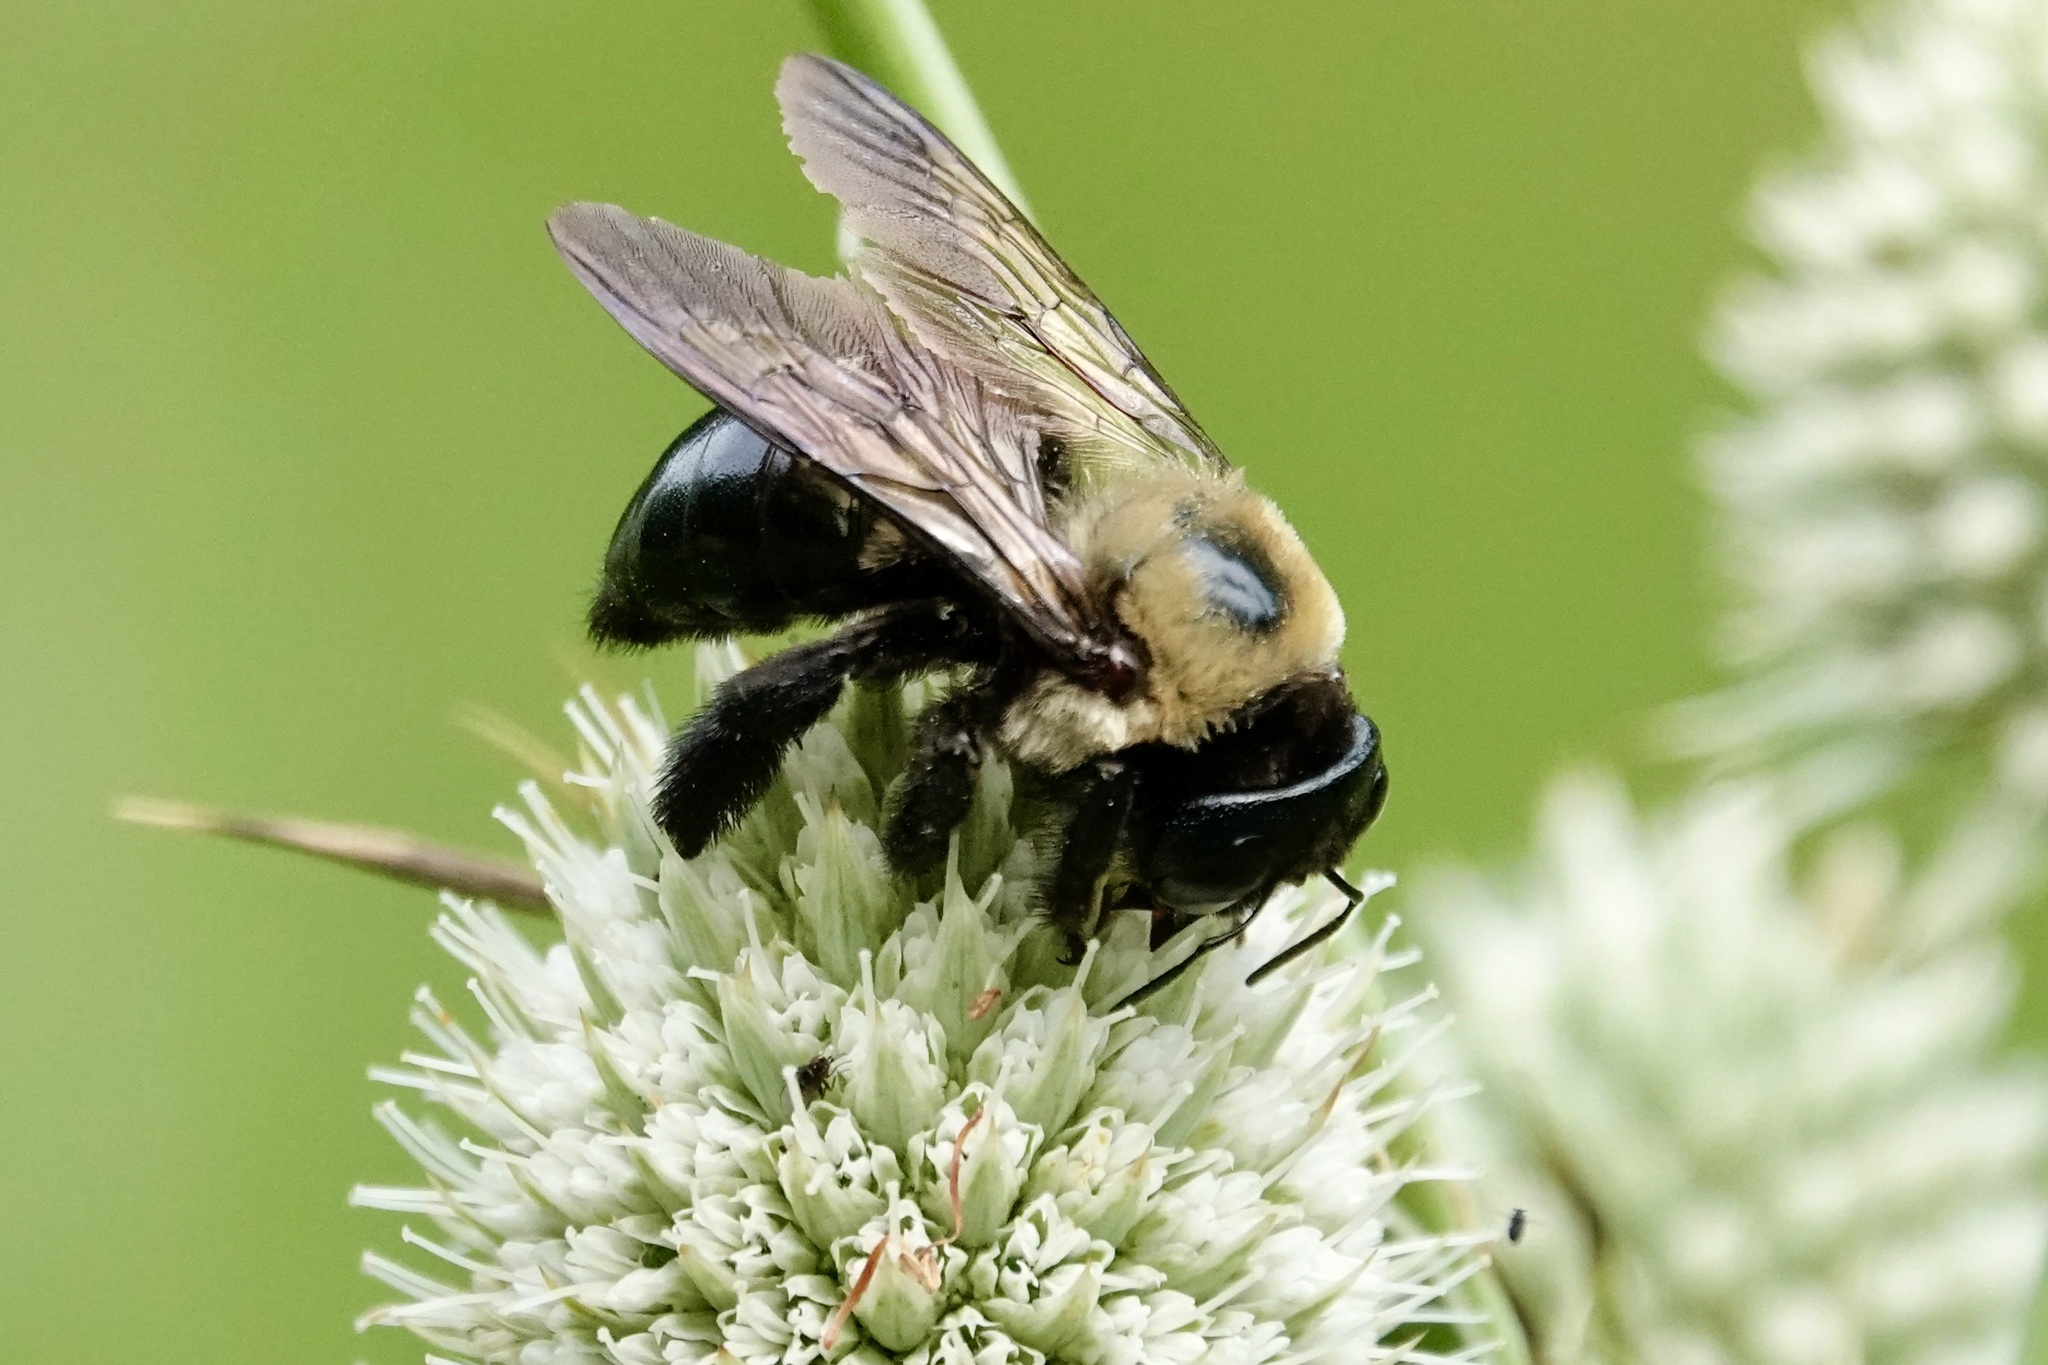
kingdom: Animalia
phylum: Arthropoda
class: Insecta
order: Hymenoptera
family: Apidae
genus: Xylocopa
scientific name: Xylocopa virginica
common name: Carpenter bee
